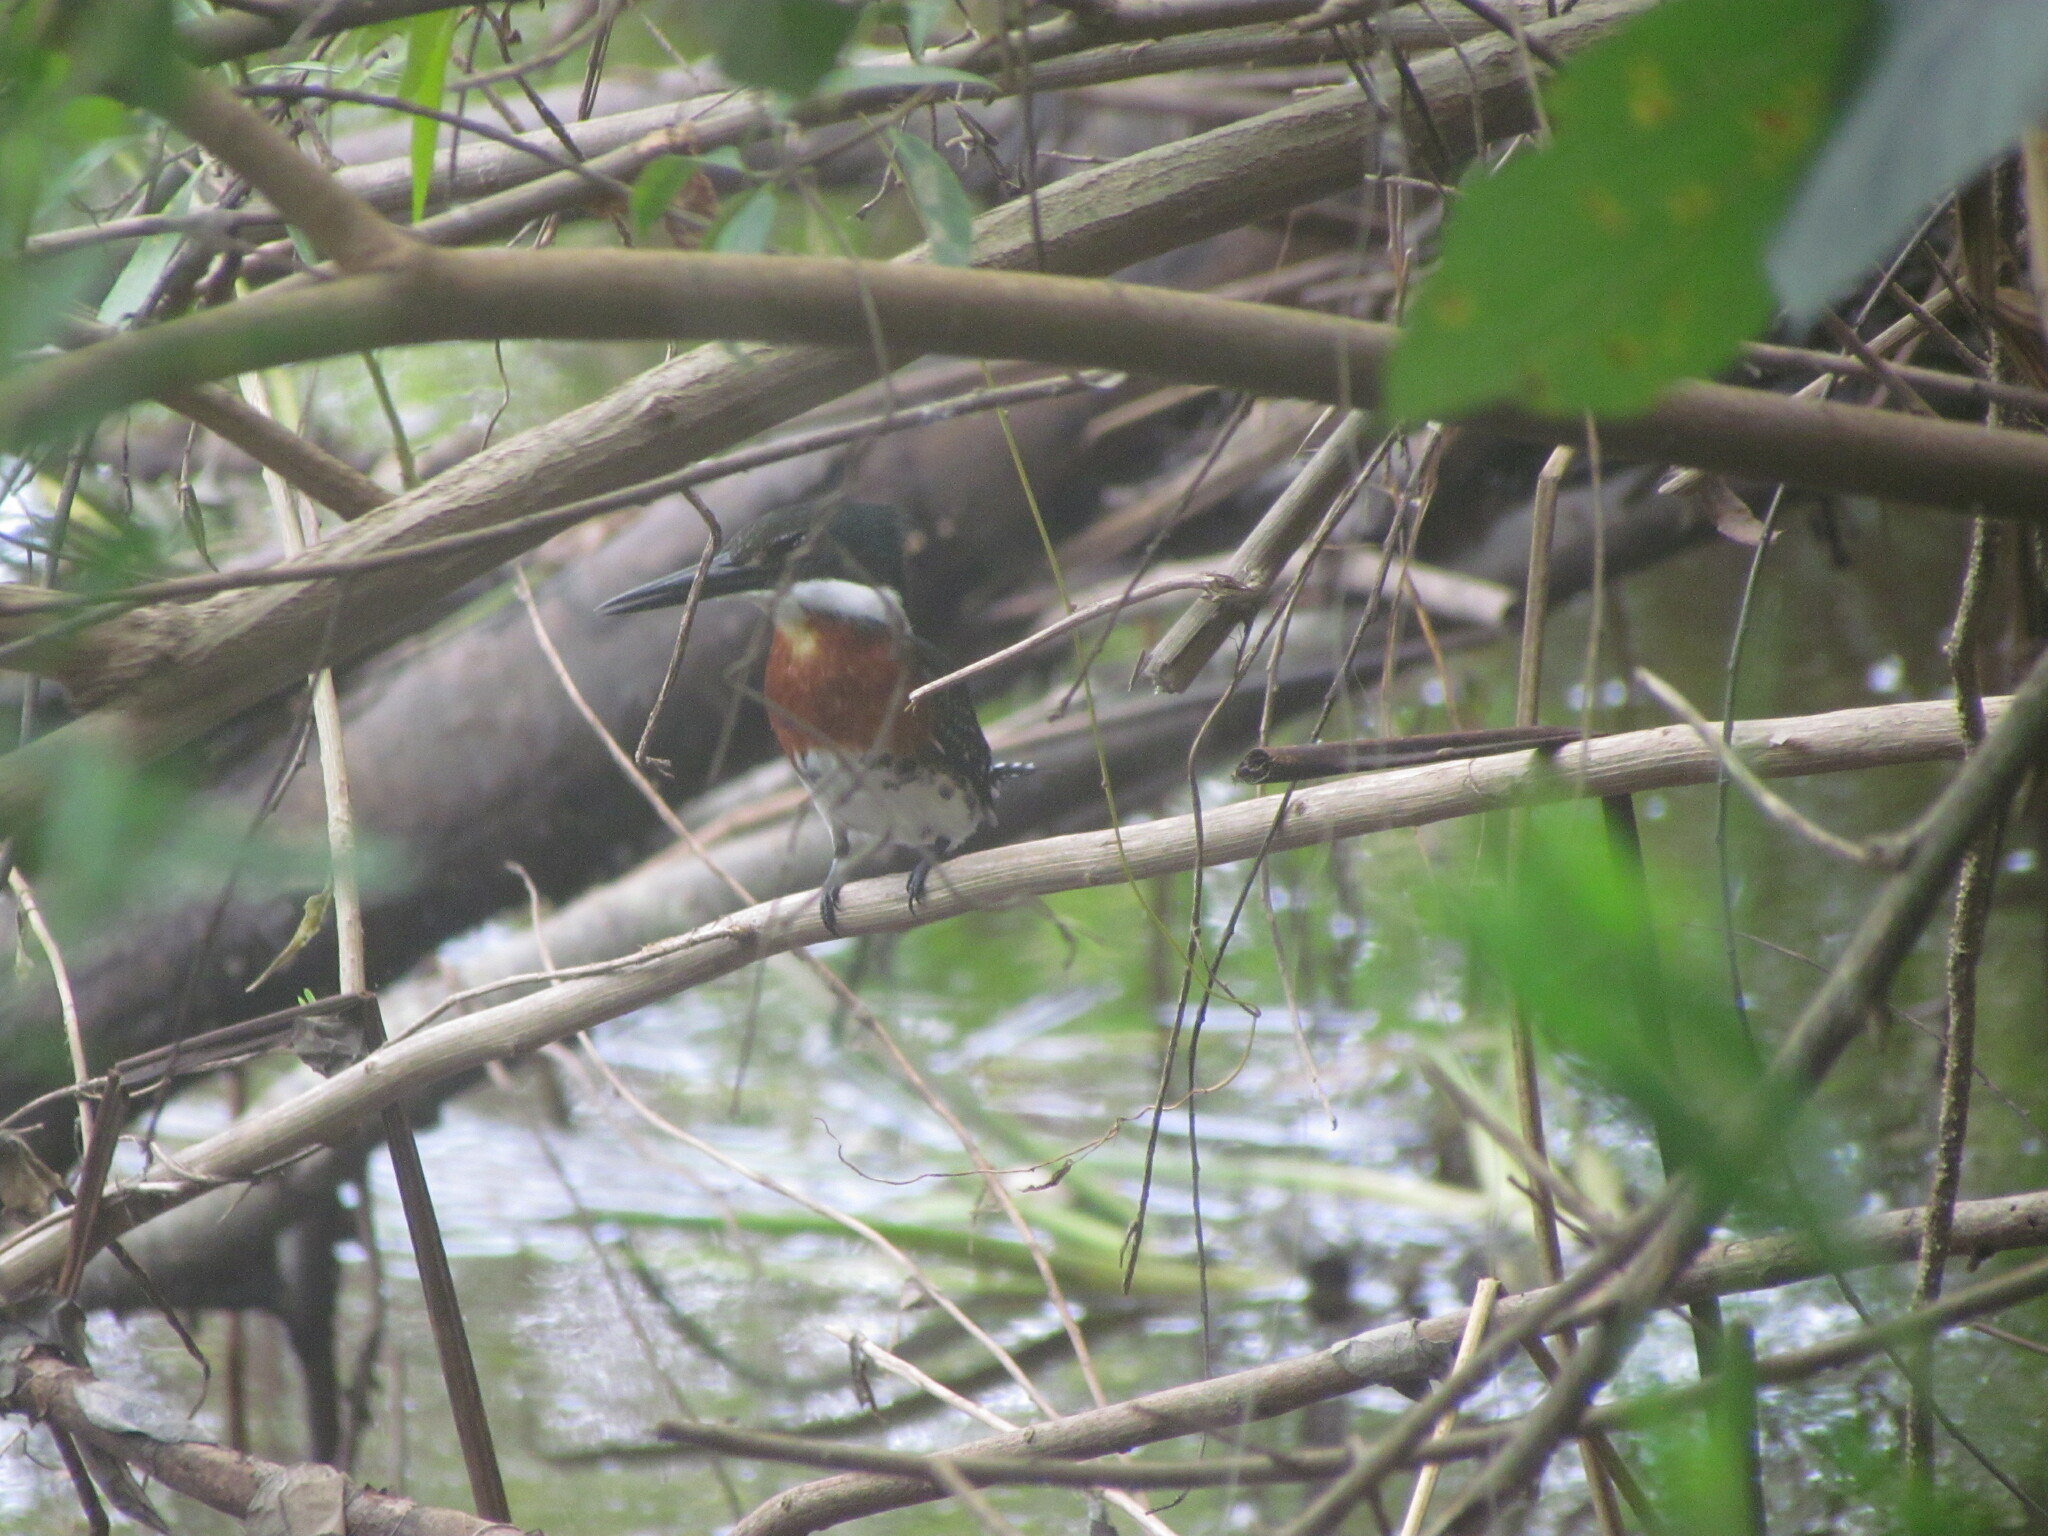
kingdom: Animalia
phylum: Chordata
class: Aves
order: Coraciiformes
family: Alcedinidae
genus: Chloroceryle
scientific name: Chloroceryle americana
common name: Green kingfisher
